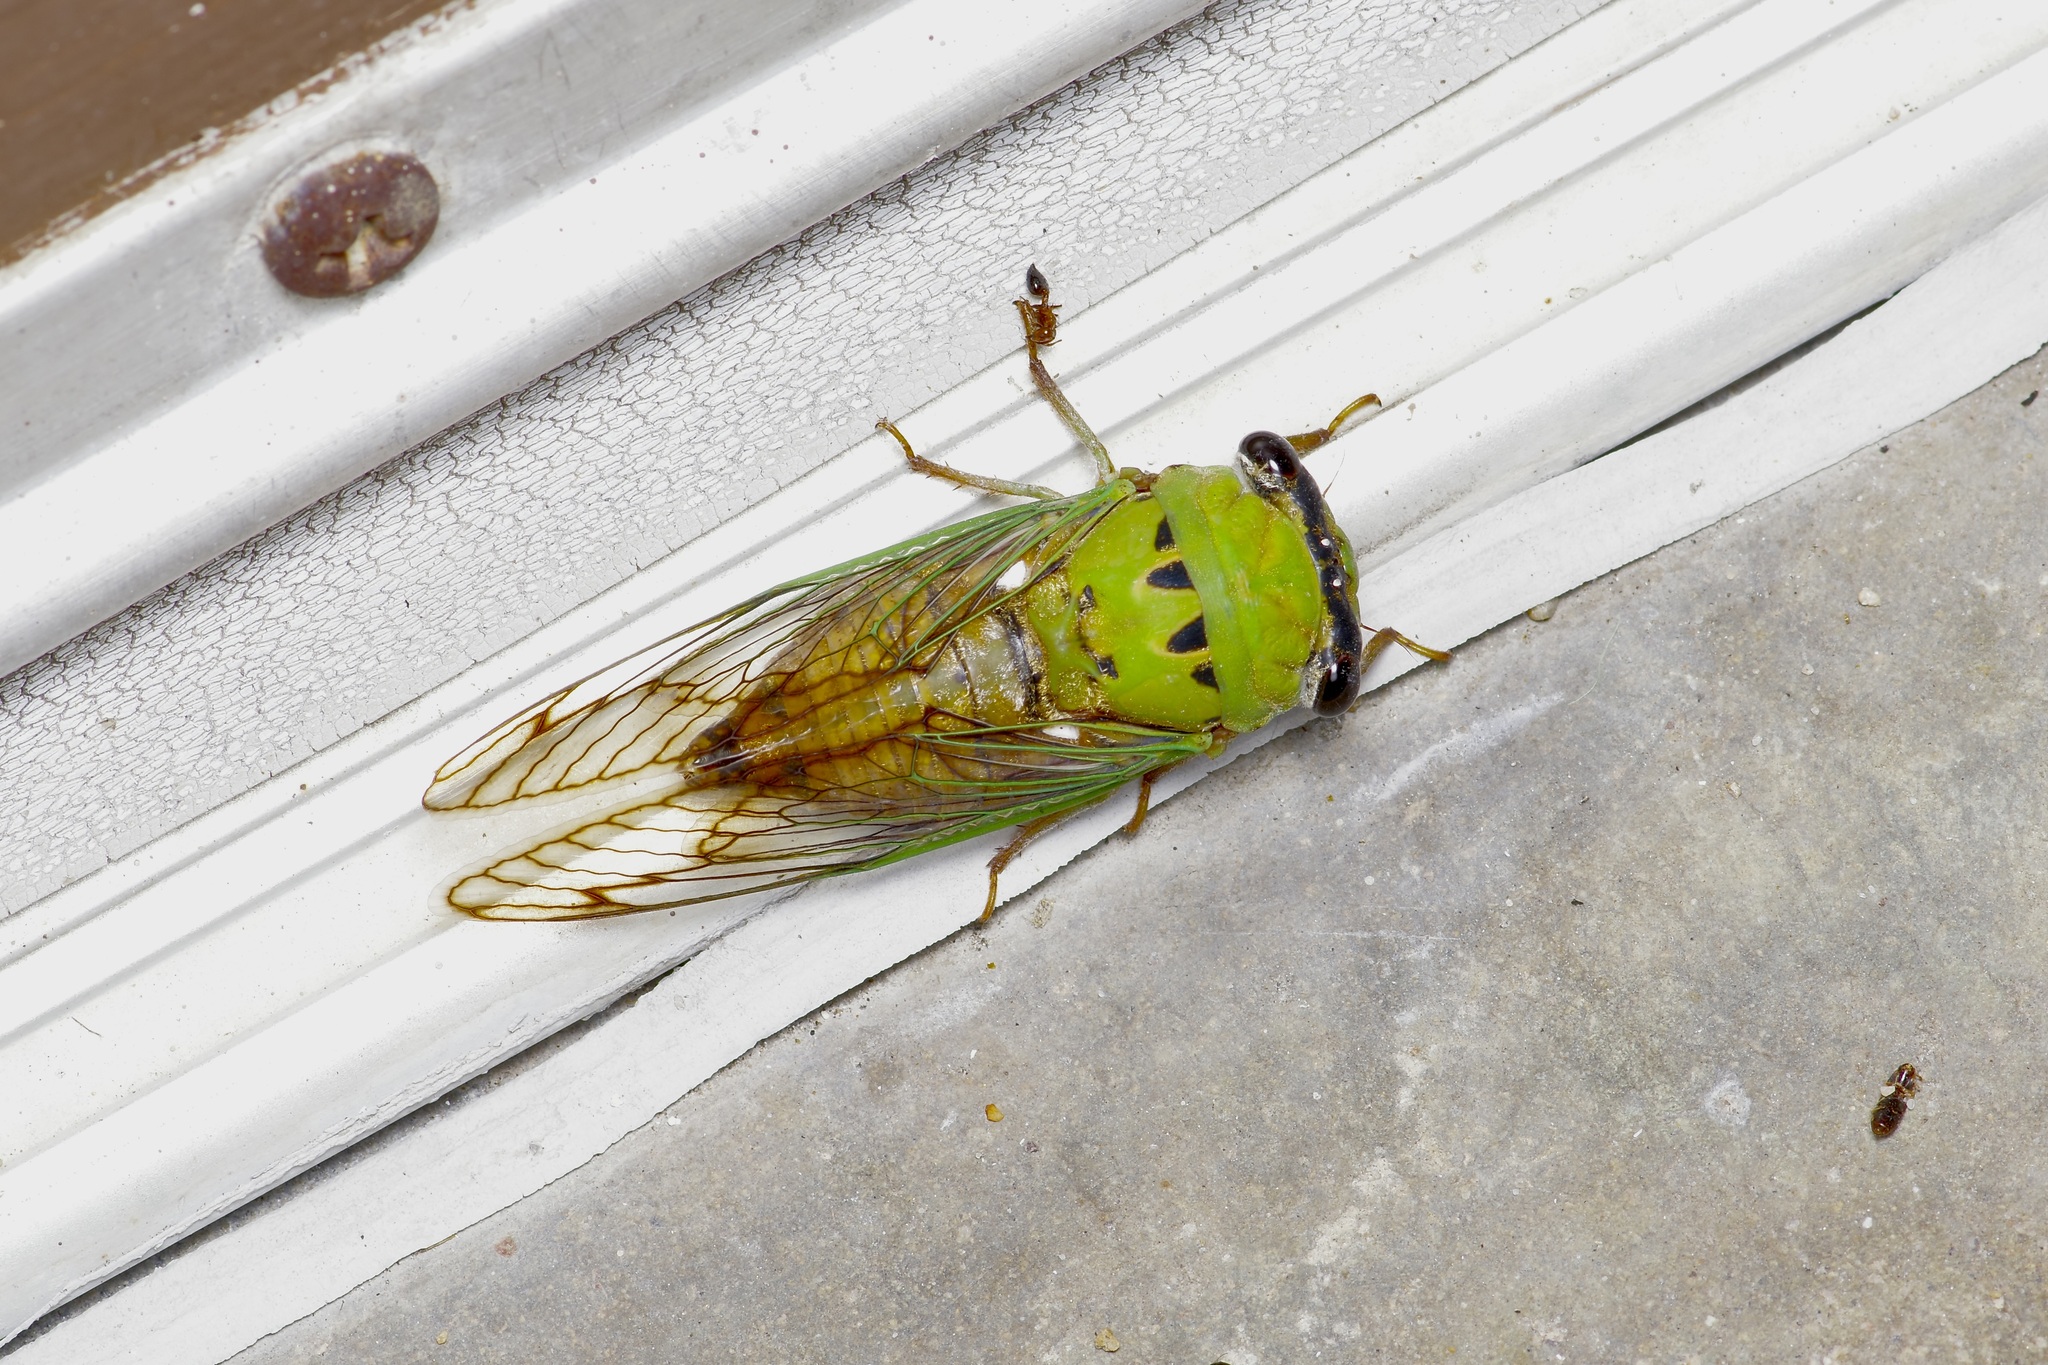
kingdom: Animalia
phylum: Arthropoda
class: Insecta
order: Hemiptera
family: Cicadidae
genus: Neotibicen
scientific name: Neotibicen superbus
